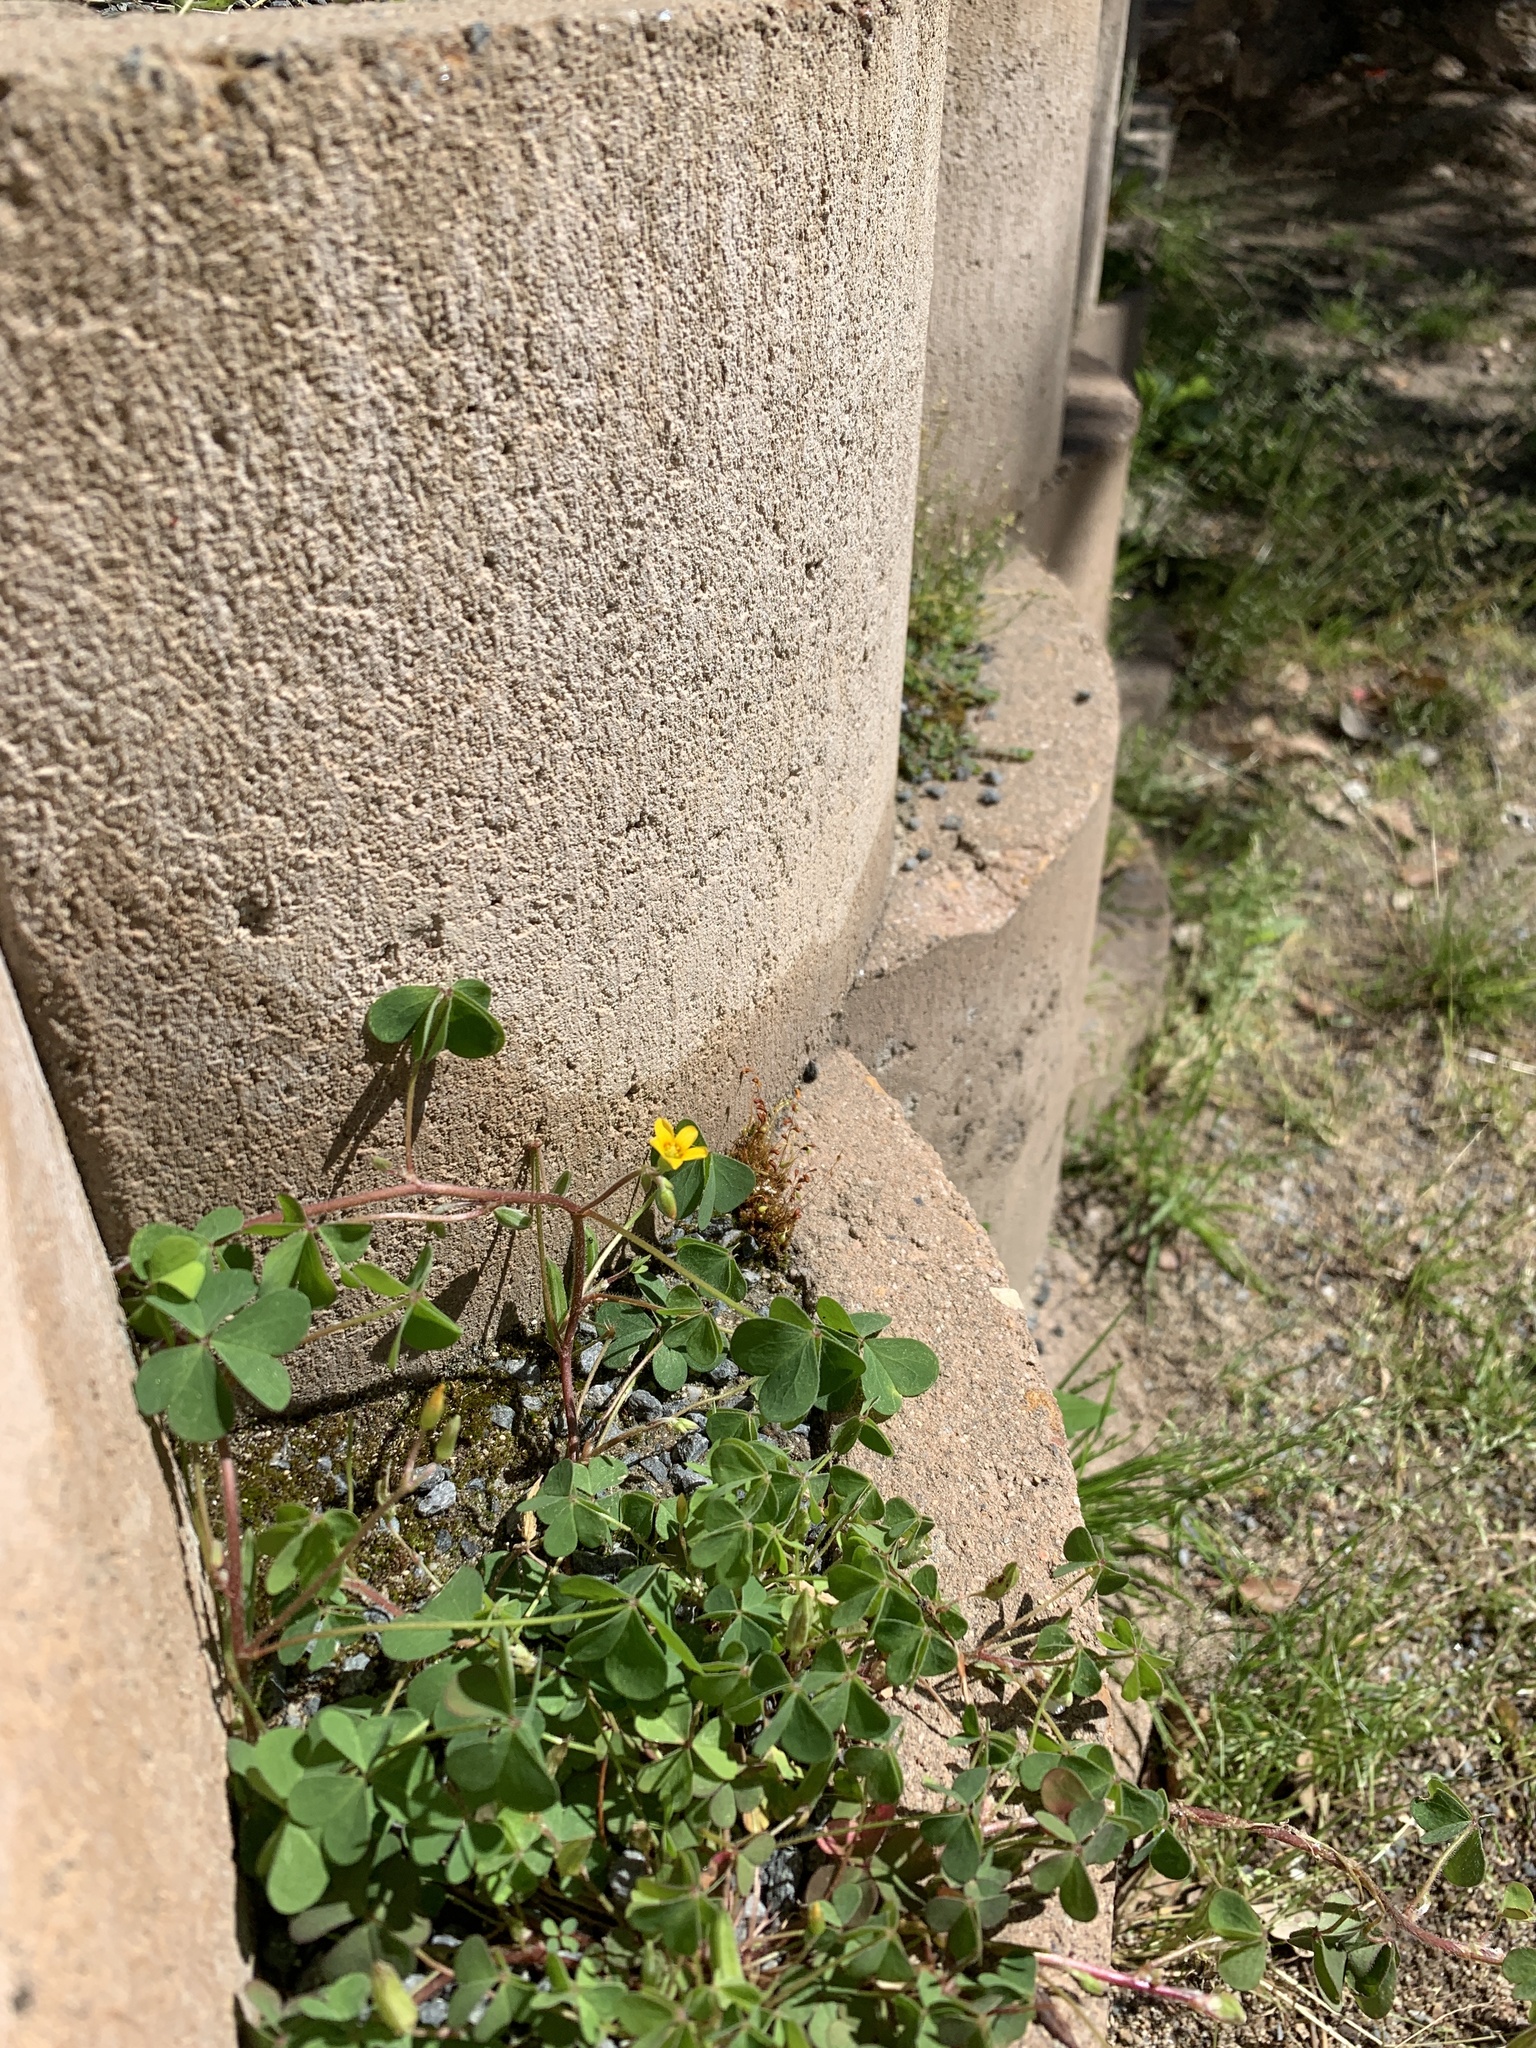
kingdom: Plantae
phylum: Tracheophyta
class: Magnoliopsida
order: Oxalidales
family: Oxalidaceae
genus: Oxalis
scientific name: Oxalis corniculata
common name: Procumbent yellow-sorrel
